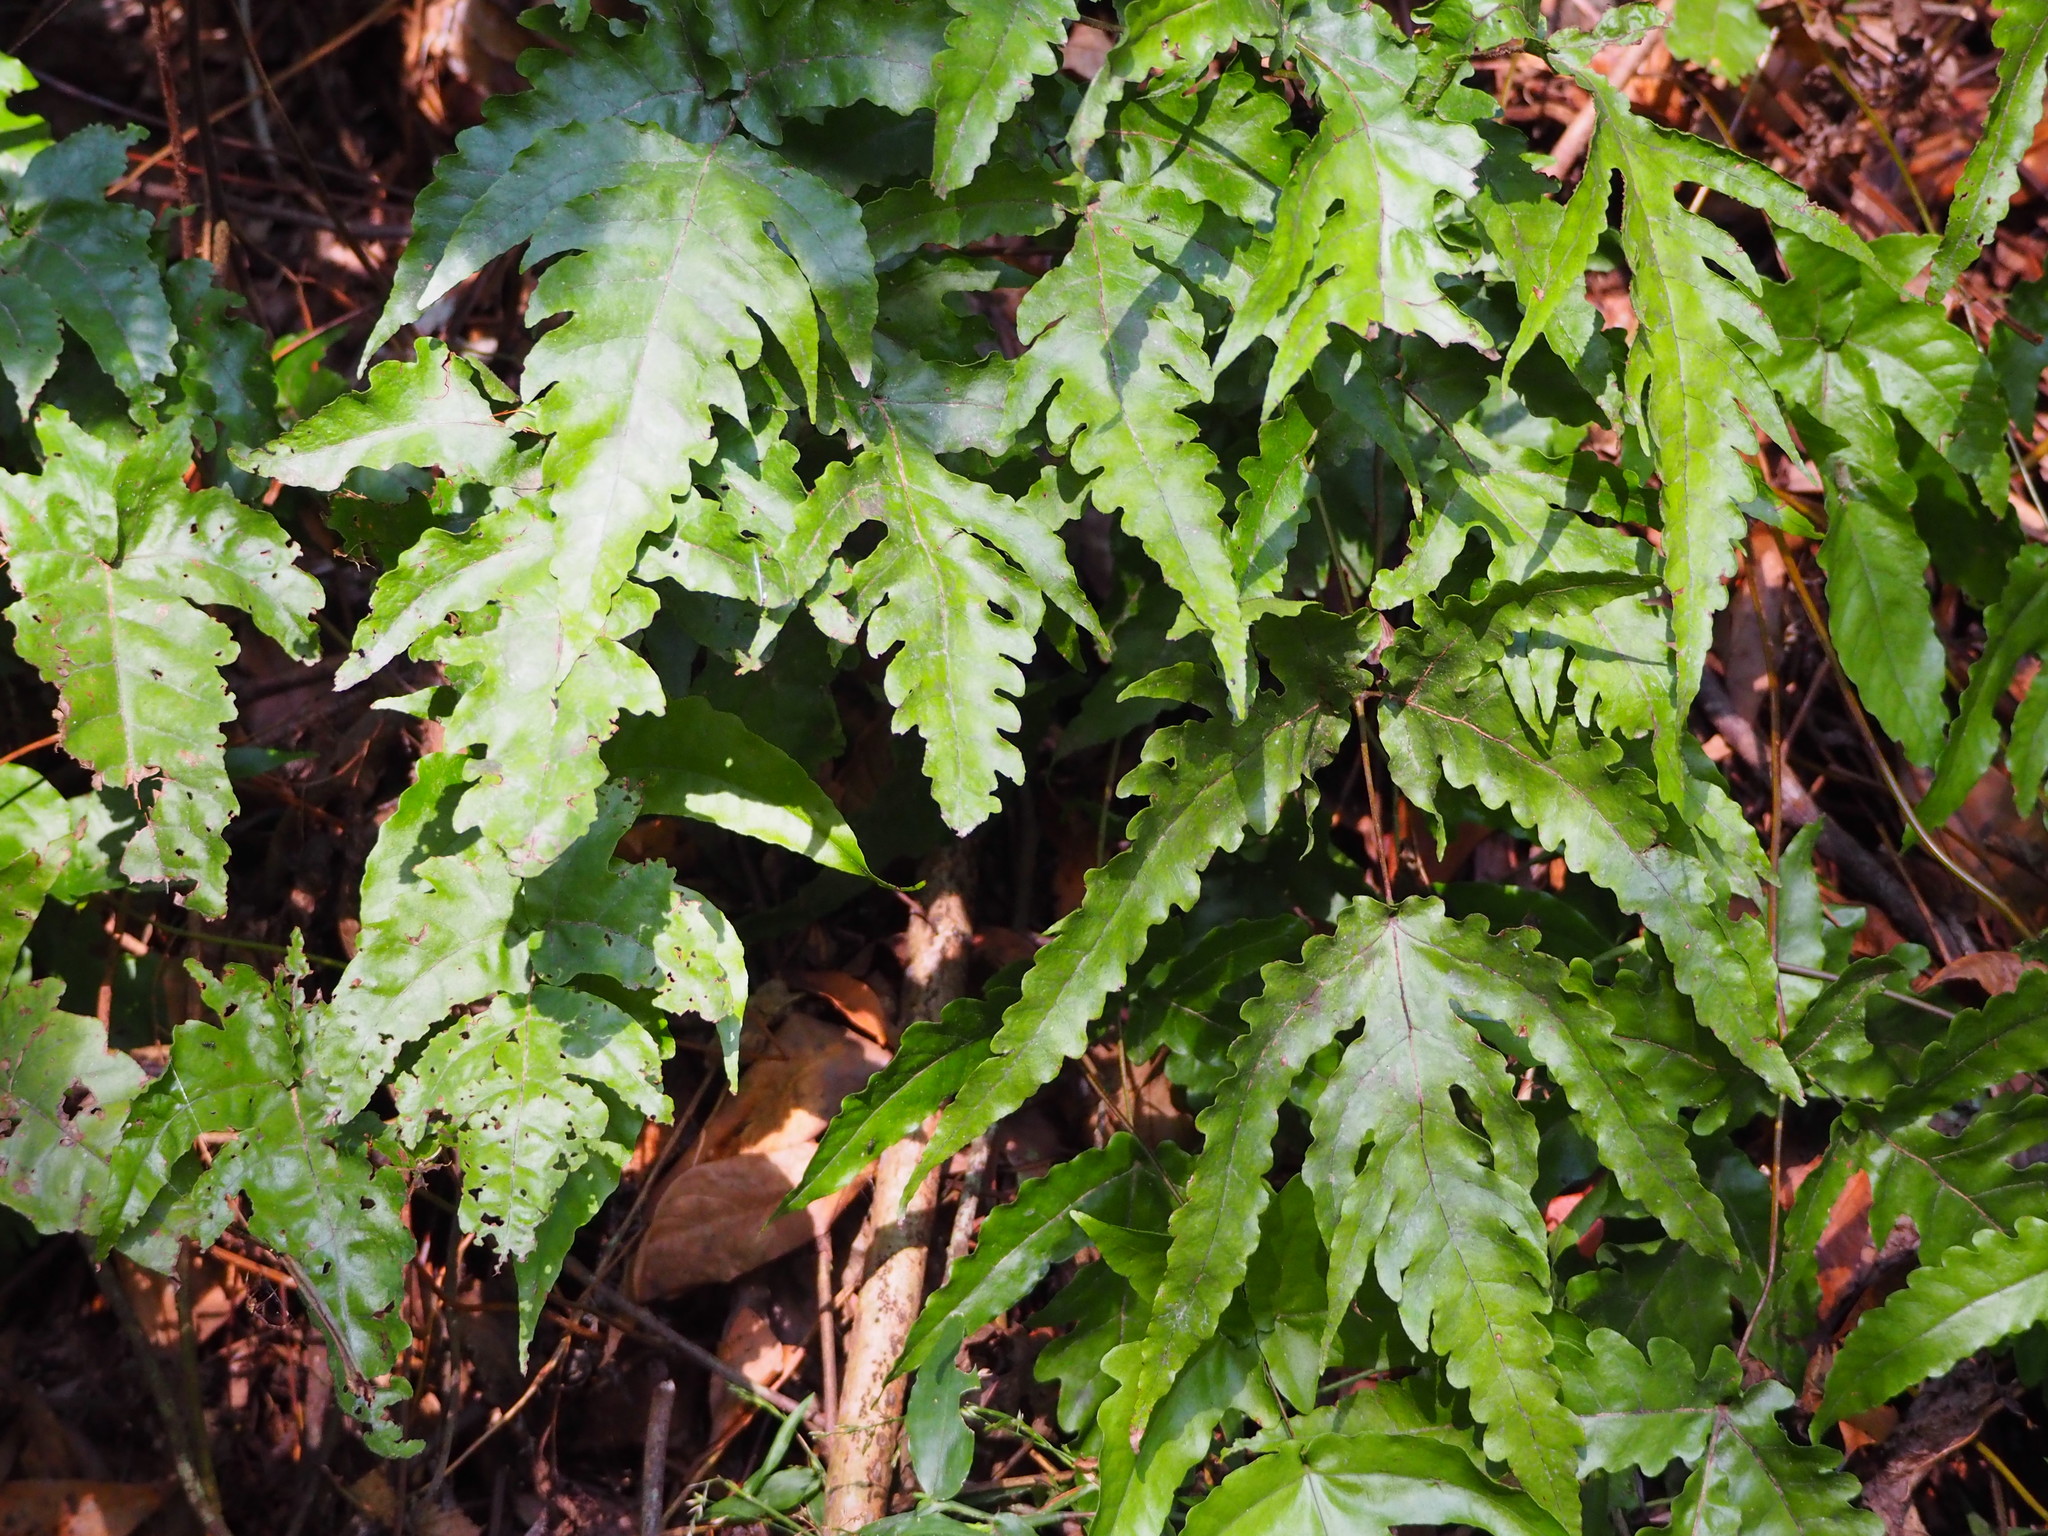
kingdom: Plantae
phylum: Tracheophyta
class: Polypodiopsida
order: Polypodiales
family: Tectariaceae
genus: Tectaria
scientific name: Tectaria subtriphylla
